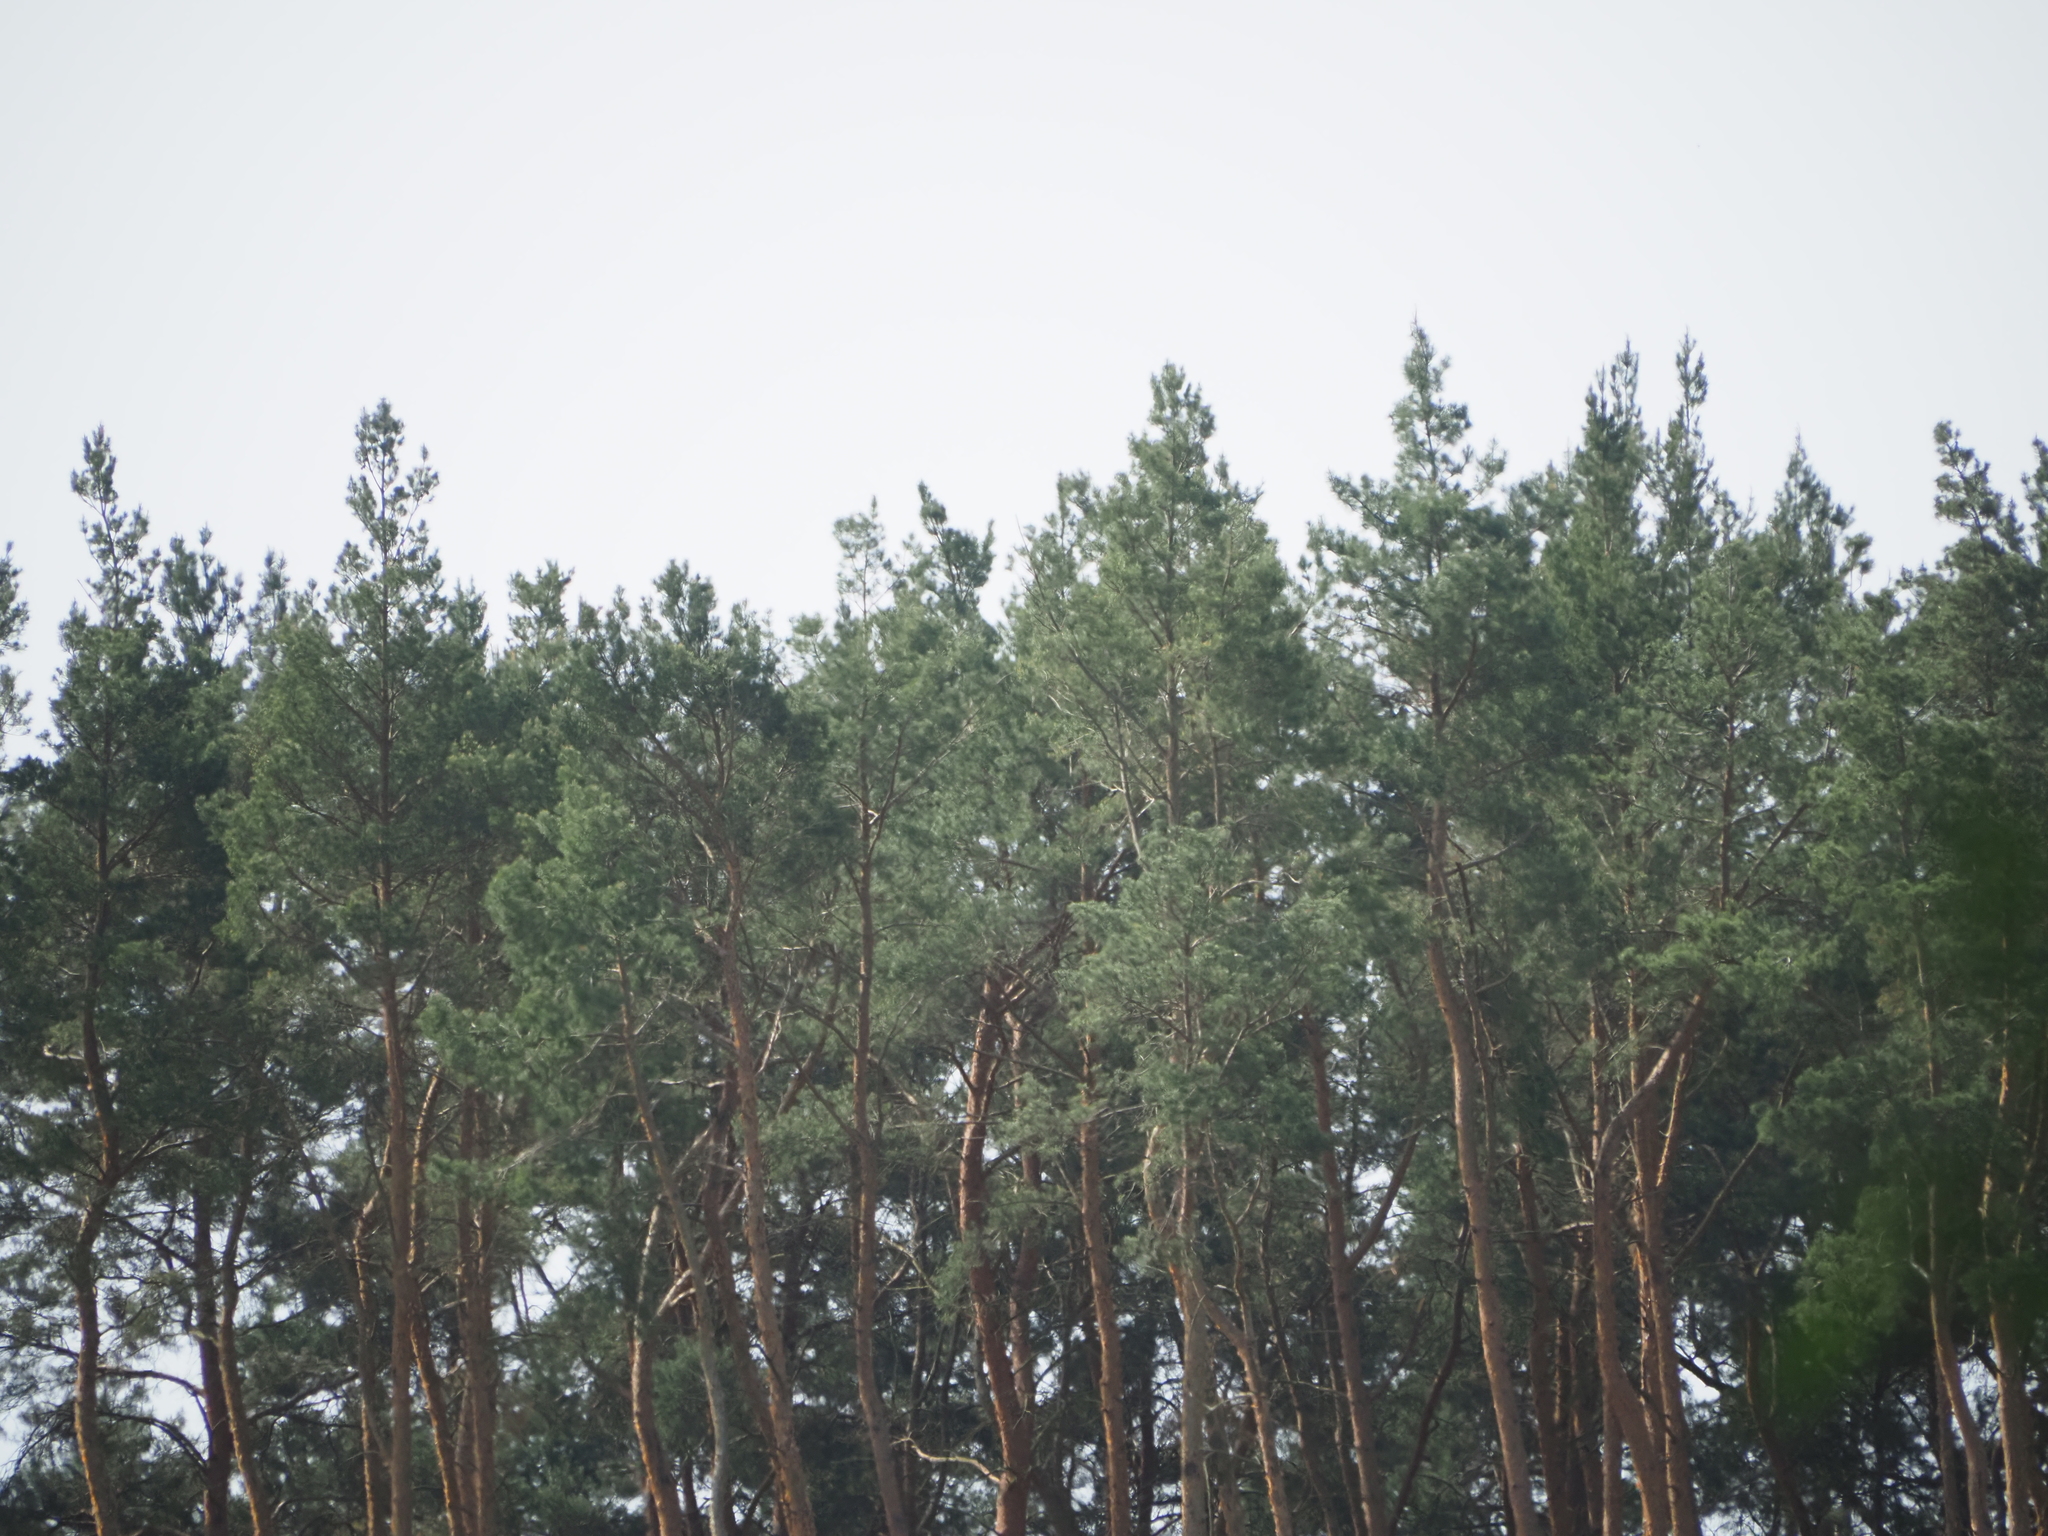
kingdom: Plantae
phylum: Tracheophyta
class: Pinopsida
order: Pinales
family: Pinaceae
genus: Pinus
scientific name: Pinus sylvestris
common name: Scots pine
